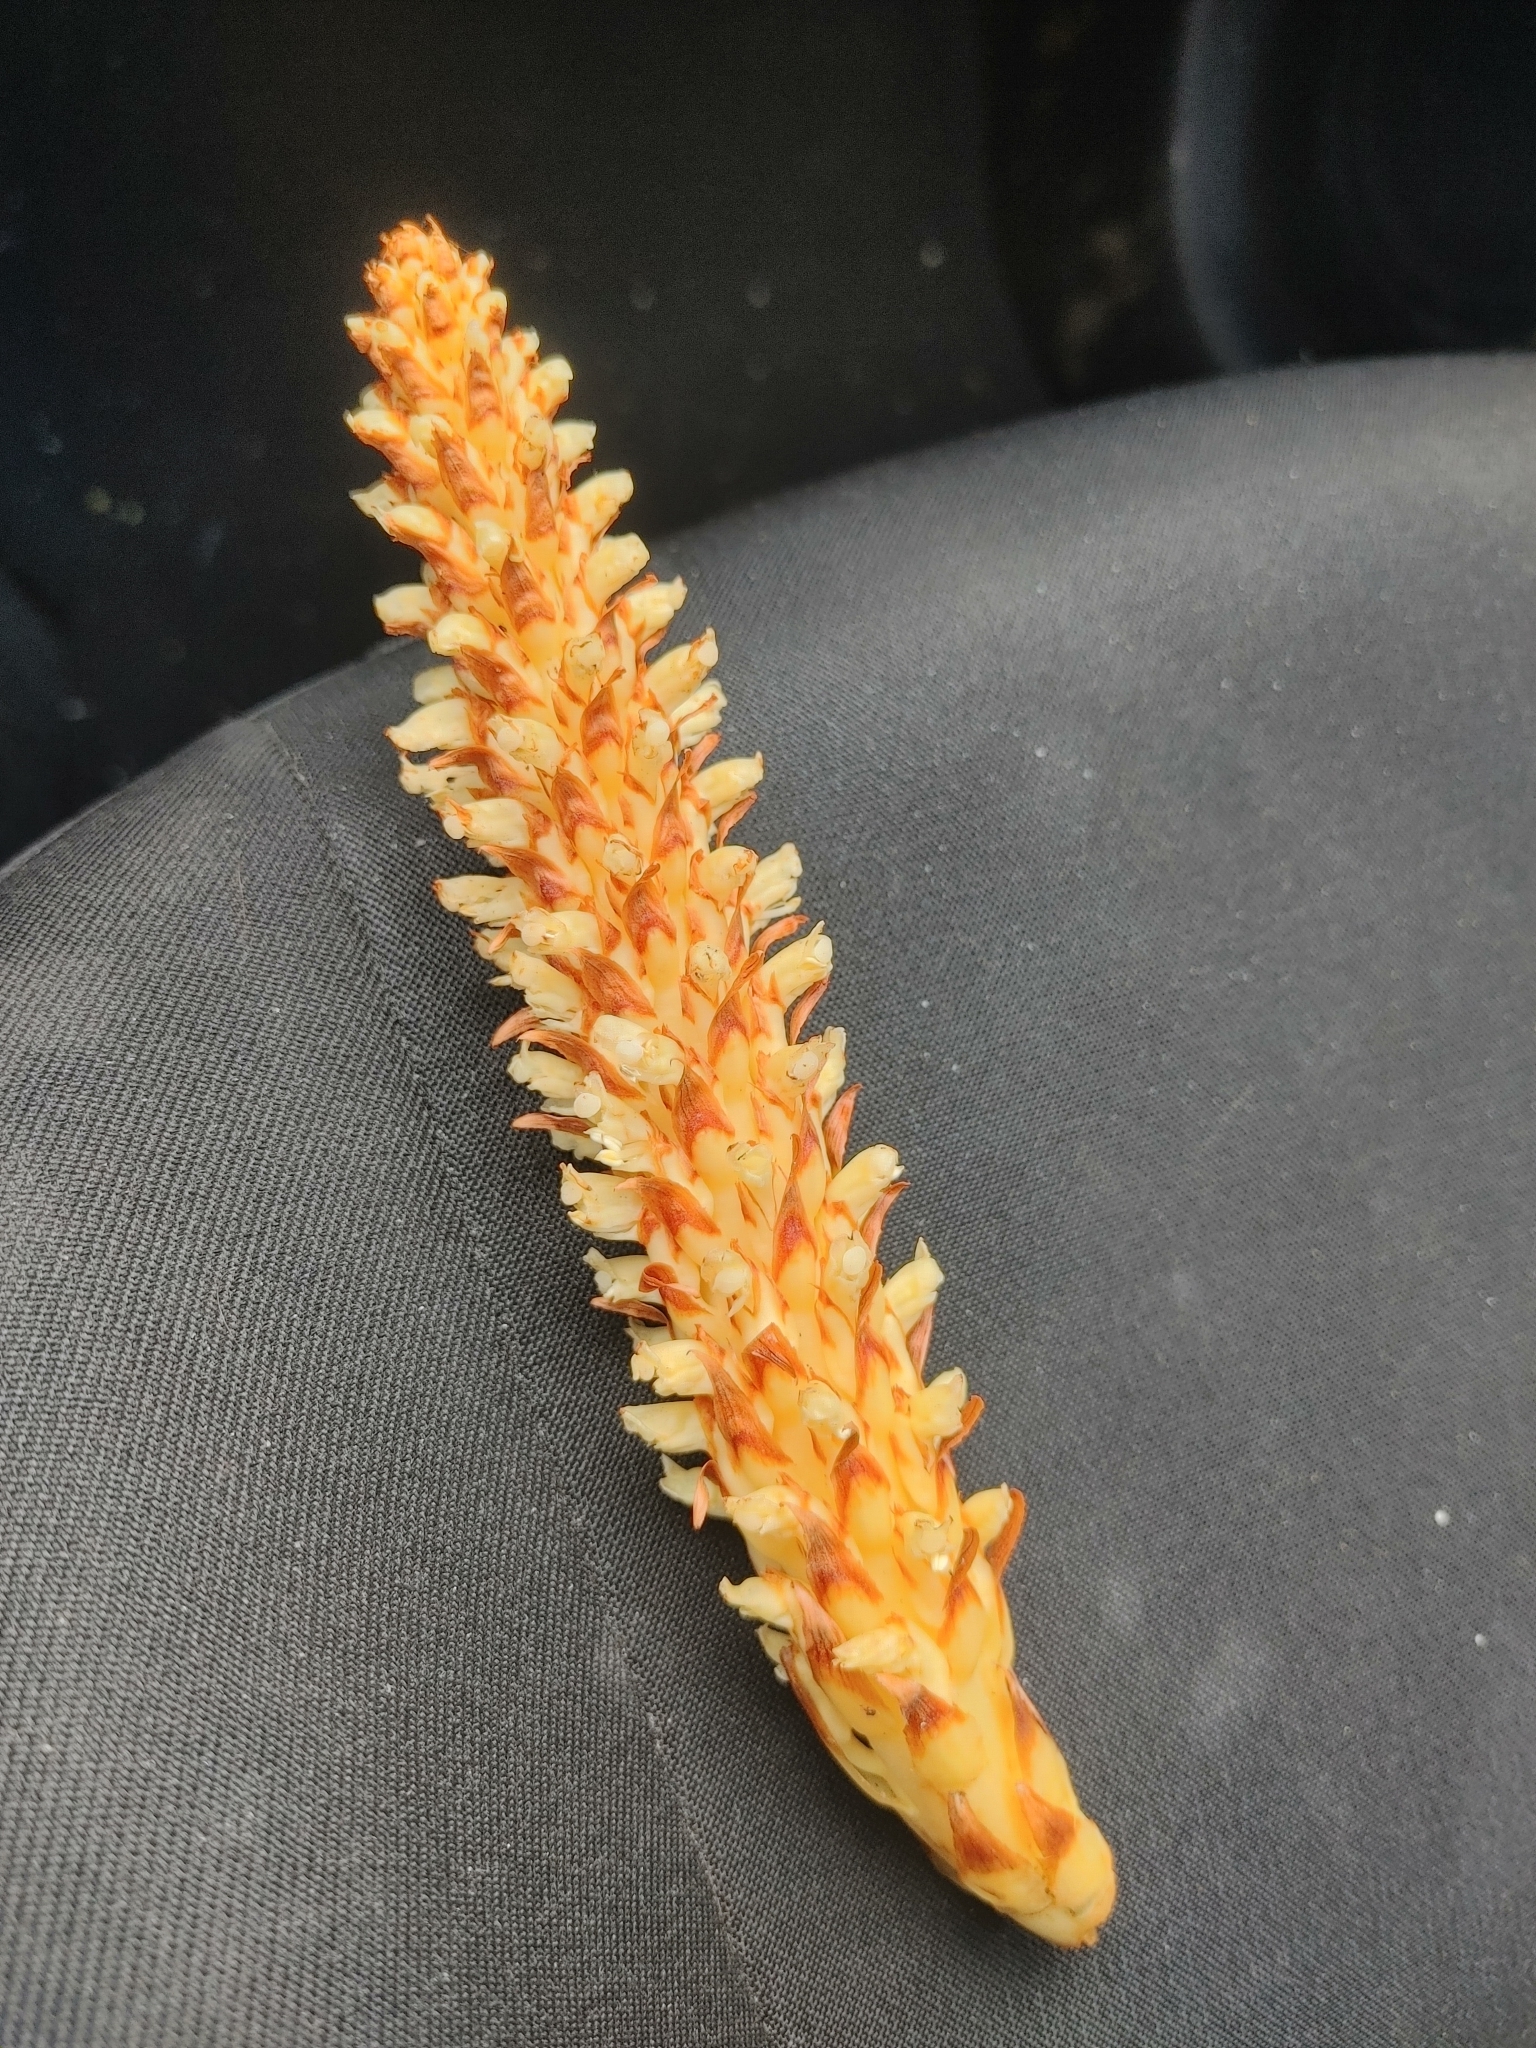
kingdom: Plantae
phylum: Tracheophyta
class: Magnoliopsida
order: Lamiales
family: Orobanchaceae
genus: Conopholis
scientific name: Conopholis americana
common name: American cancer-root
